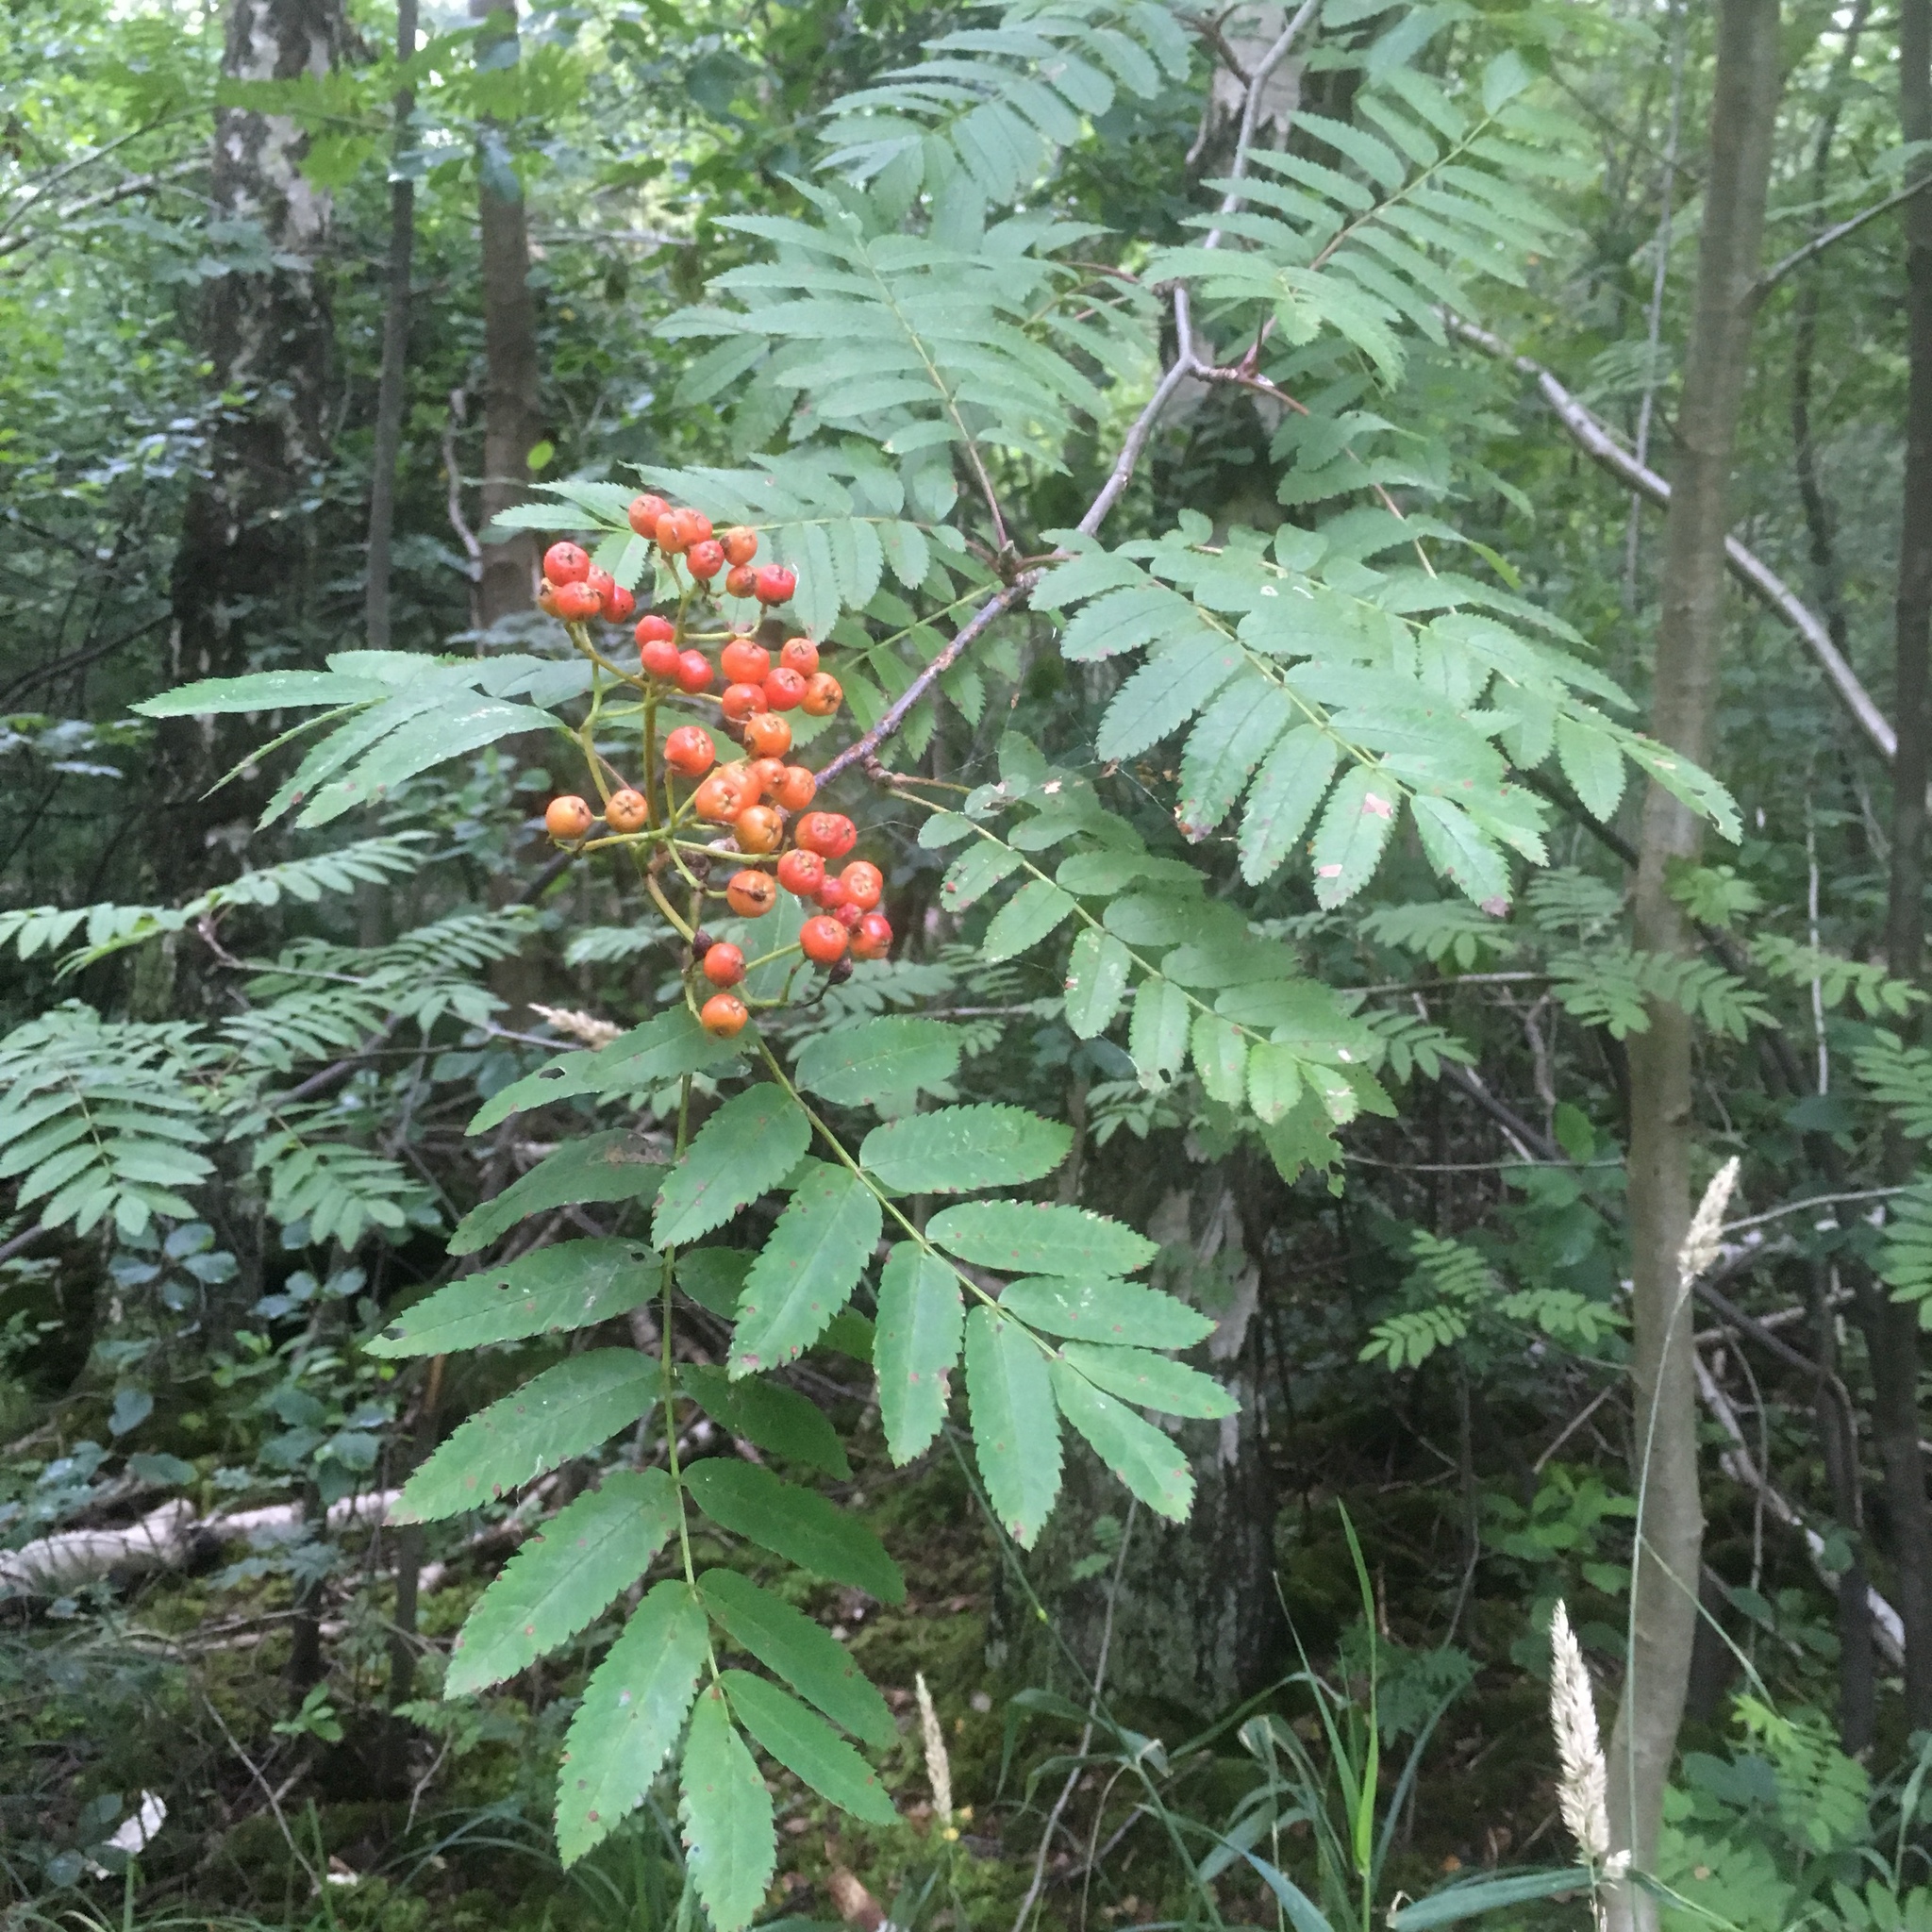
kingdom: Plantae
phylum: Tracheophyta
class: Magnoliopsida
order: Rosales
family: Rosaceae
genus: Sorbus
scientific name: Sorbus aucuparia
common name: Rowan
